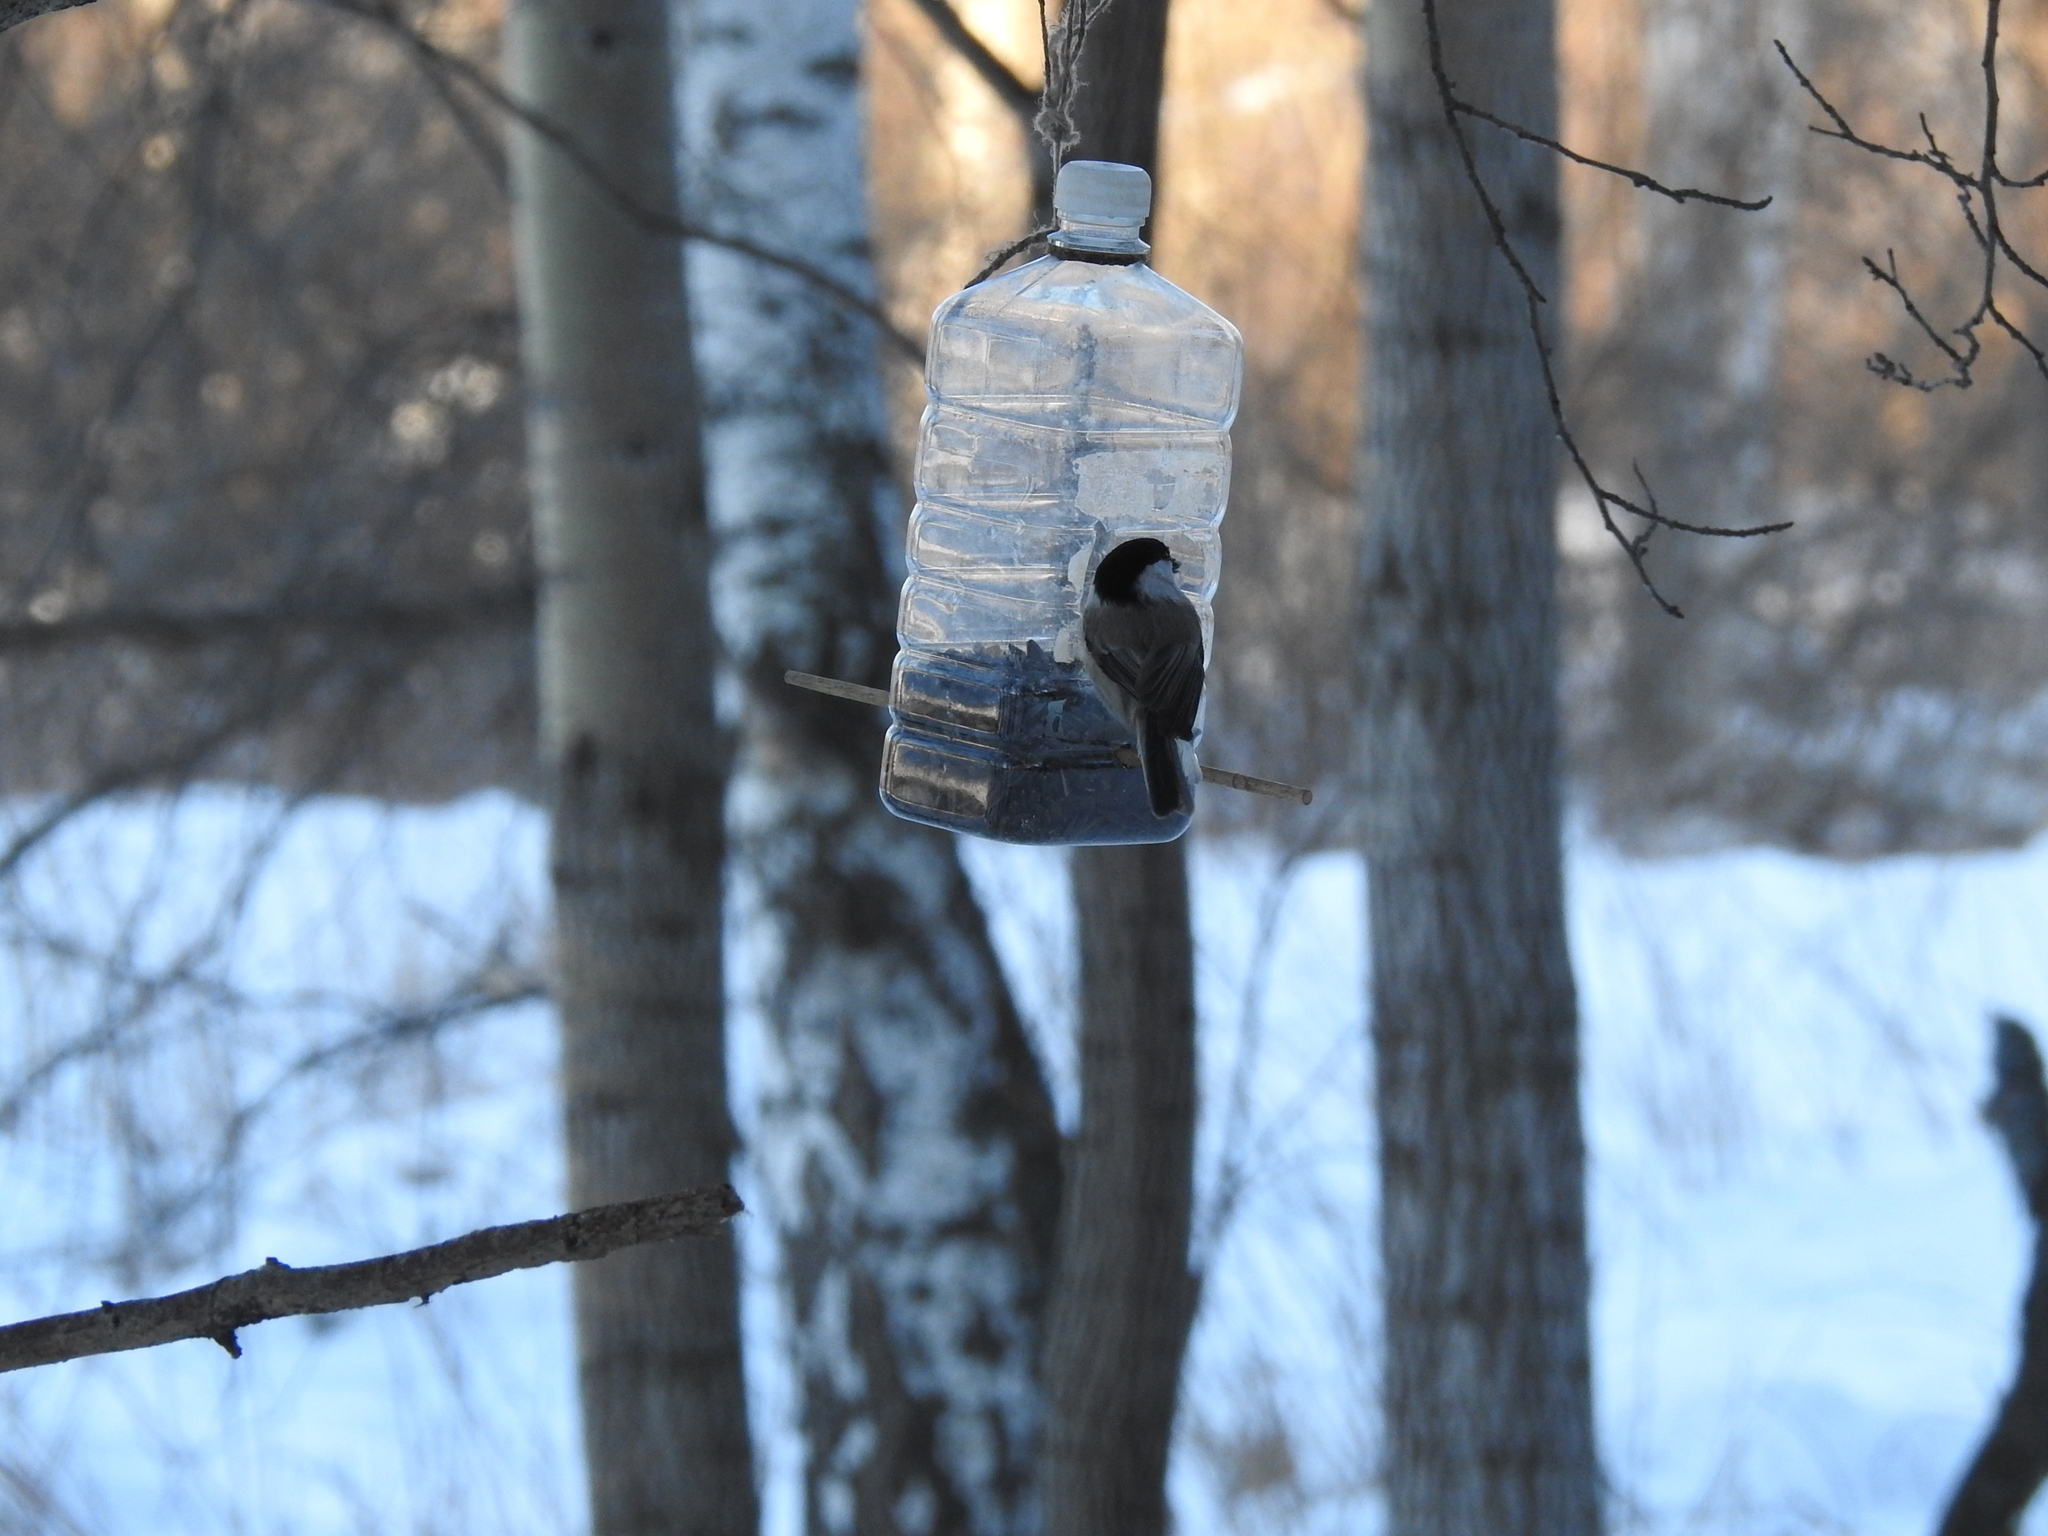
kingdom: Animalia
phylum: Chordata
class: Aves
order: Passeriformes
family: Paridae
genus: Poecile
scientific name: Poecile montanus
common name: Willow tit
